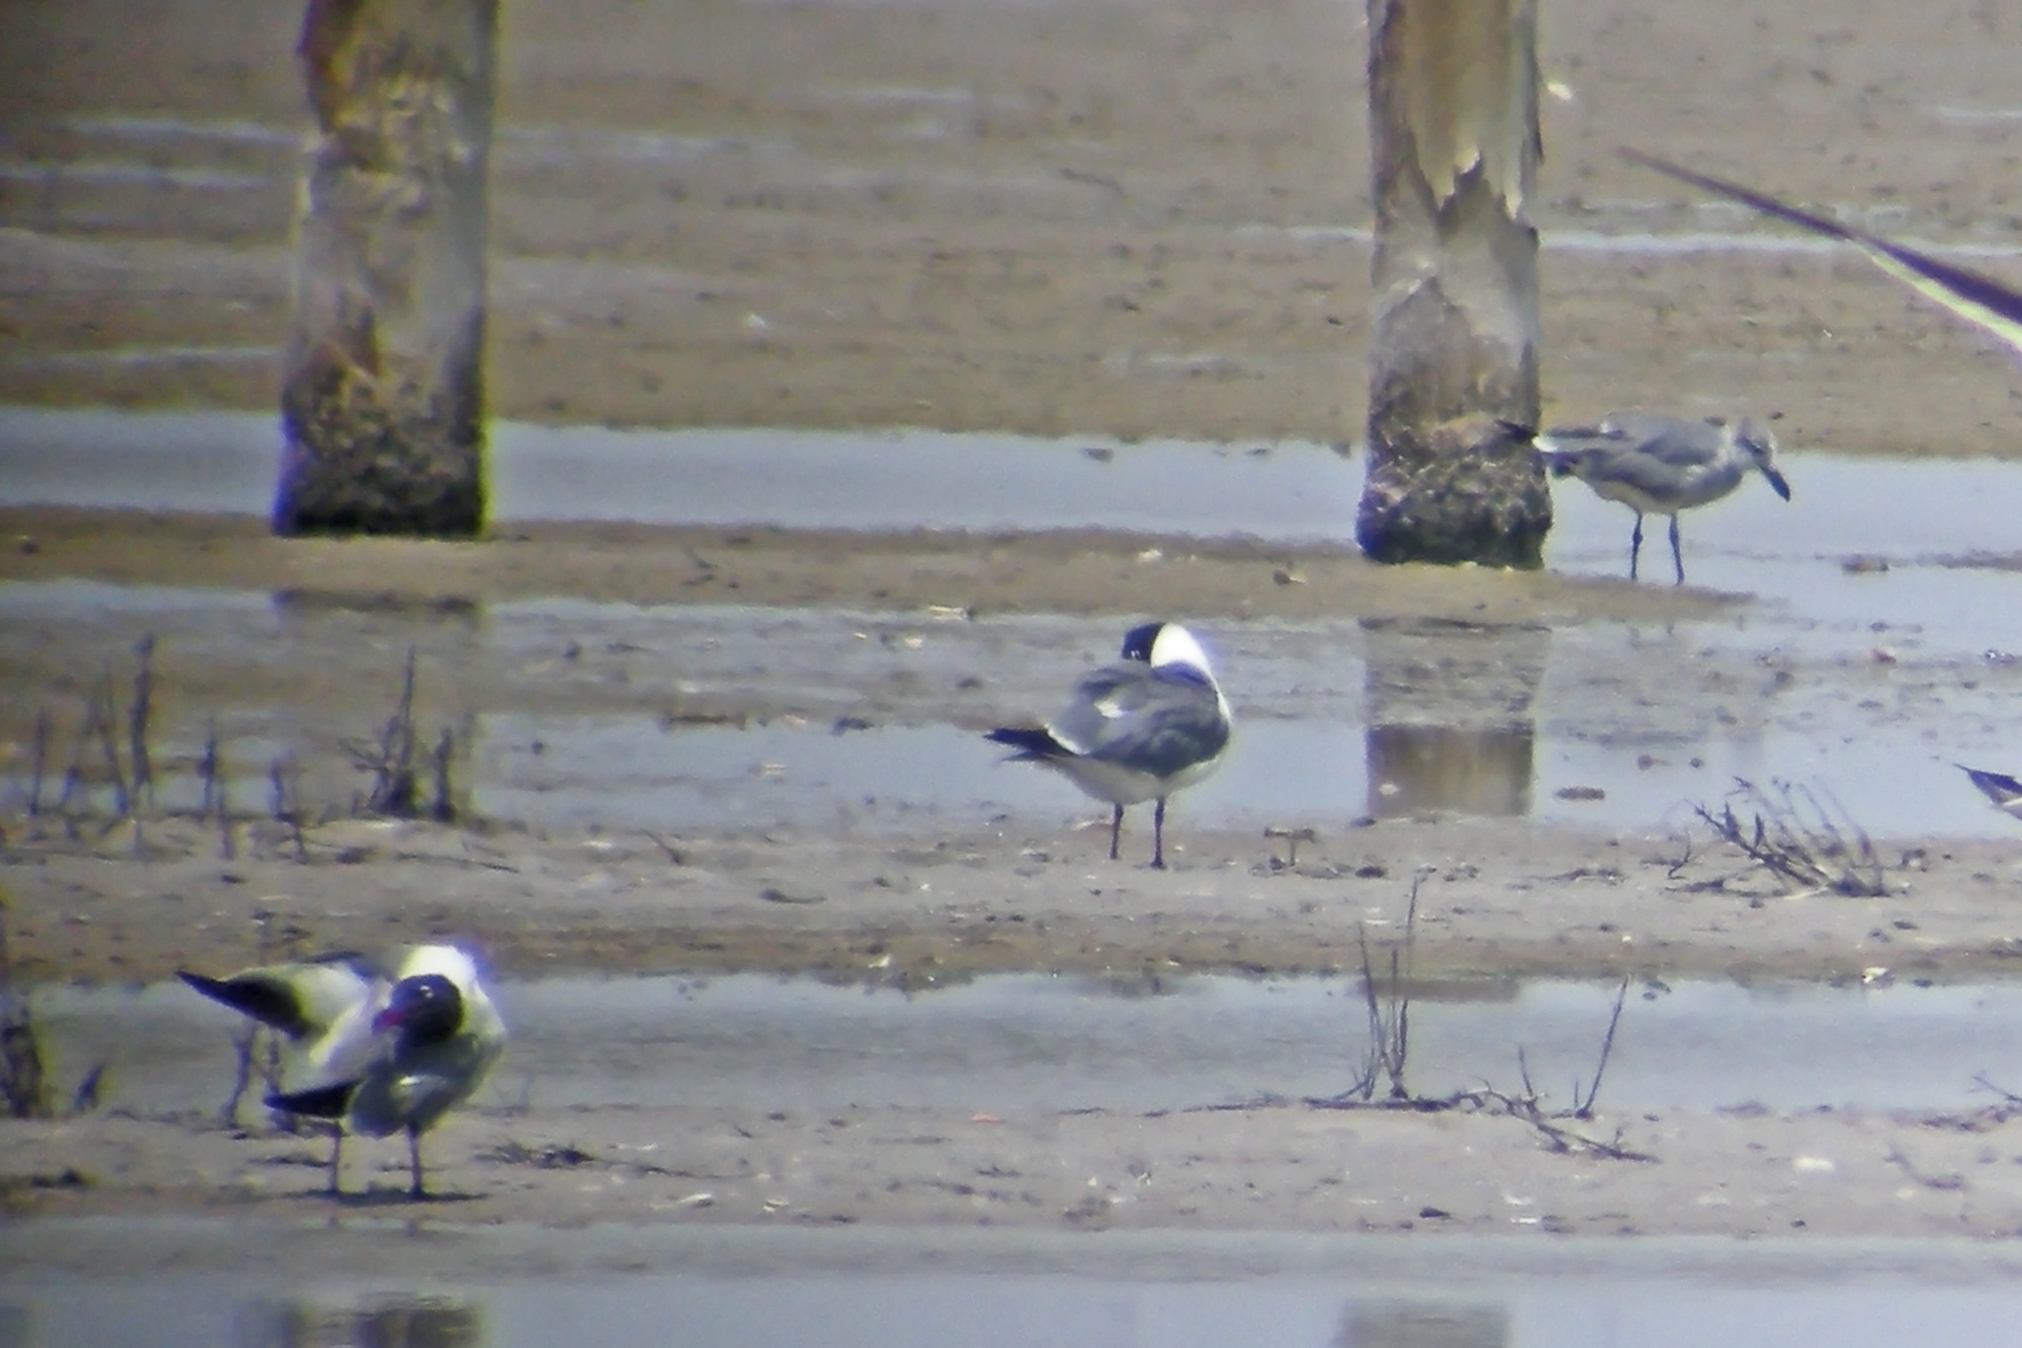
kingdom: Animalia
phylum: Chordata
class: Aves
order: Charadriiformes
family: Laridae
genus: Leucophaeus
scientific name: Leucophaeus atricilla
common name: Laughing gull
